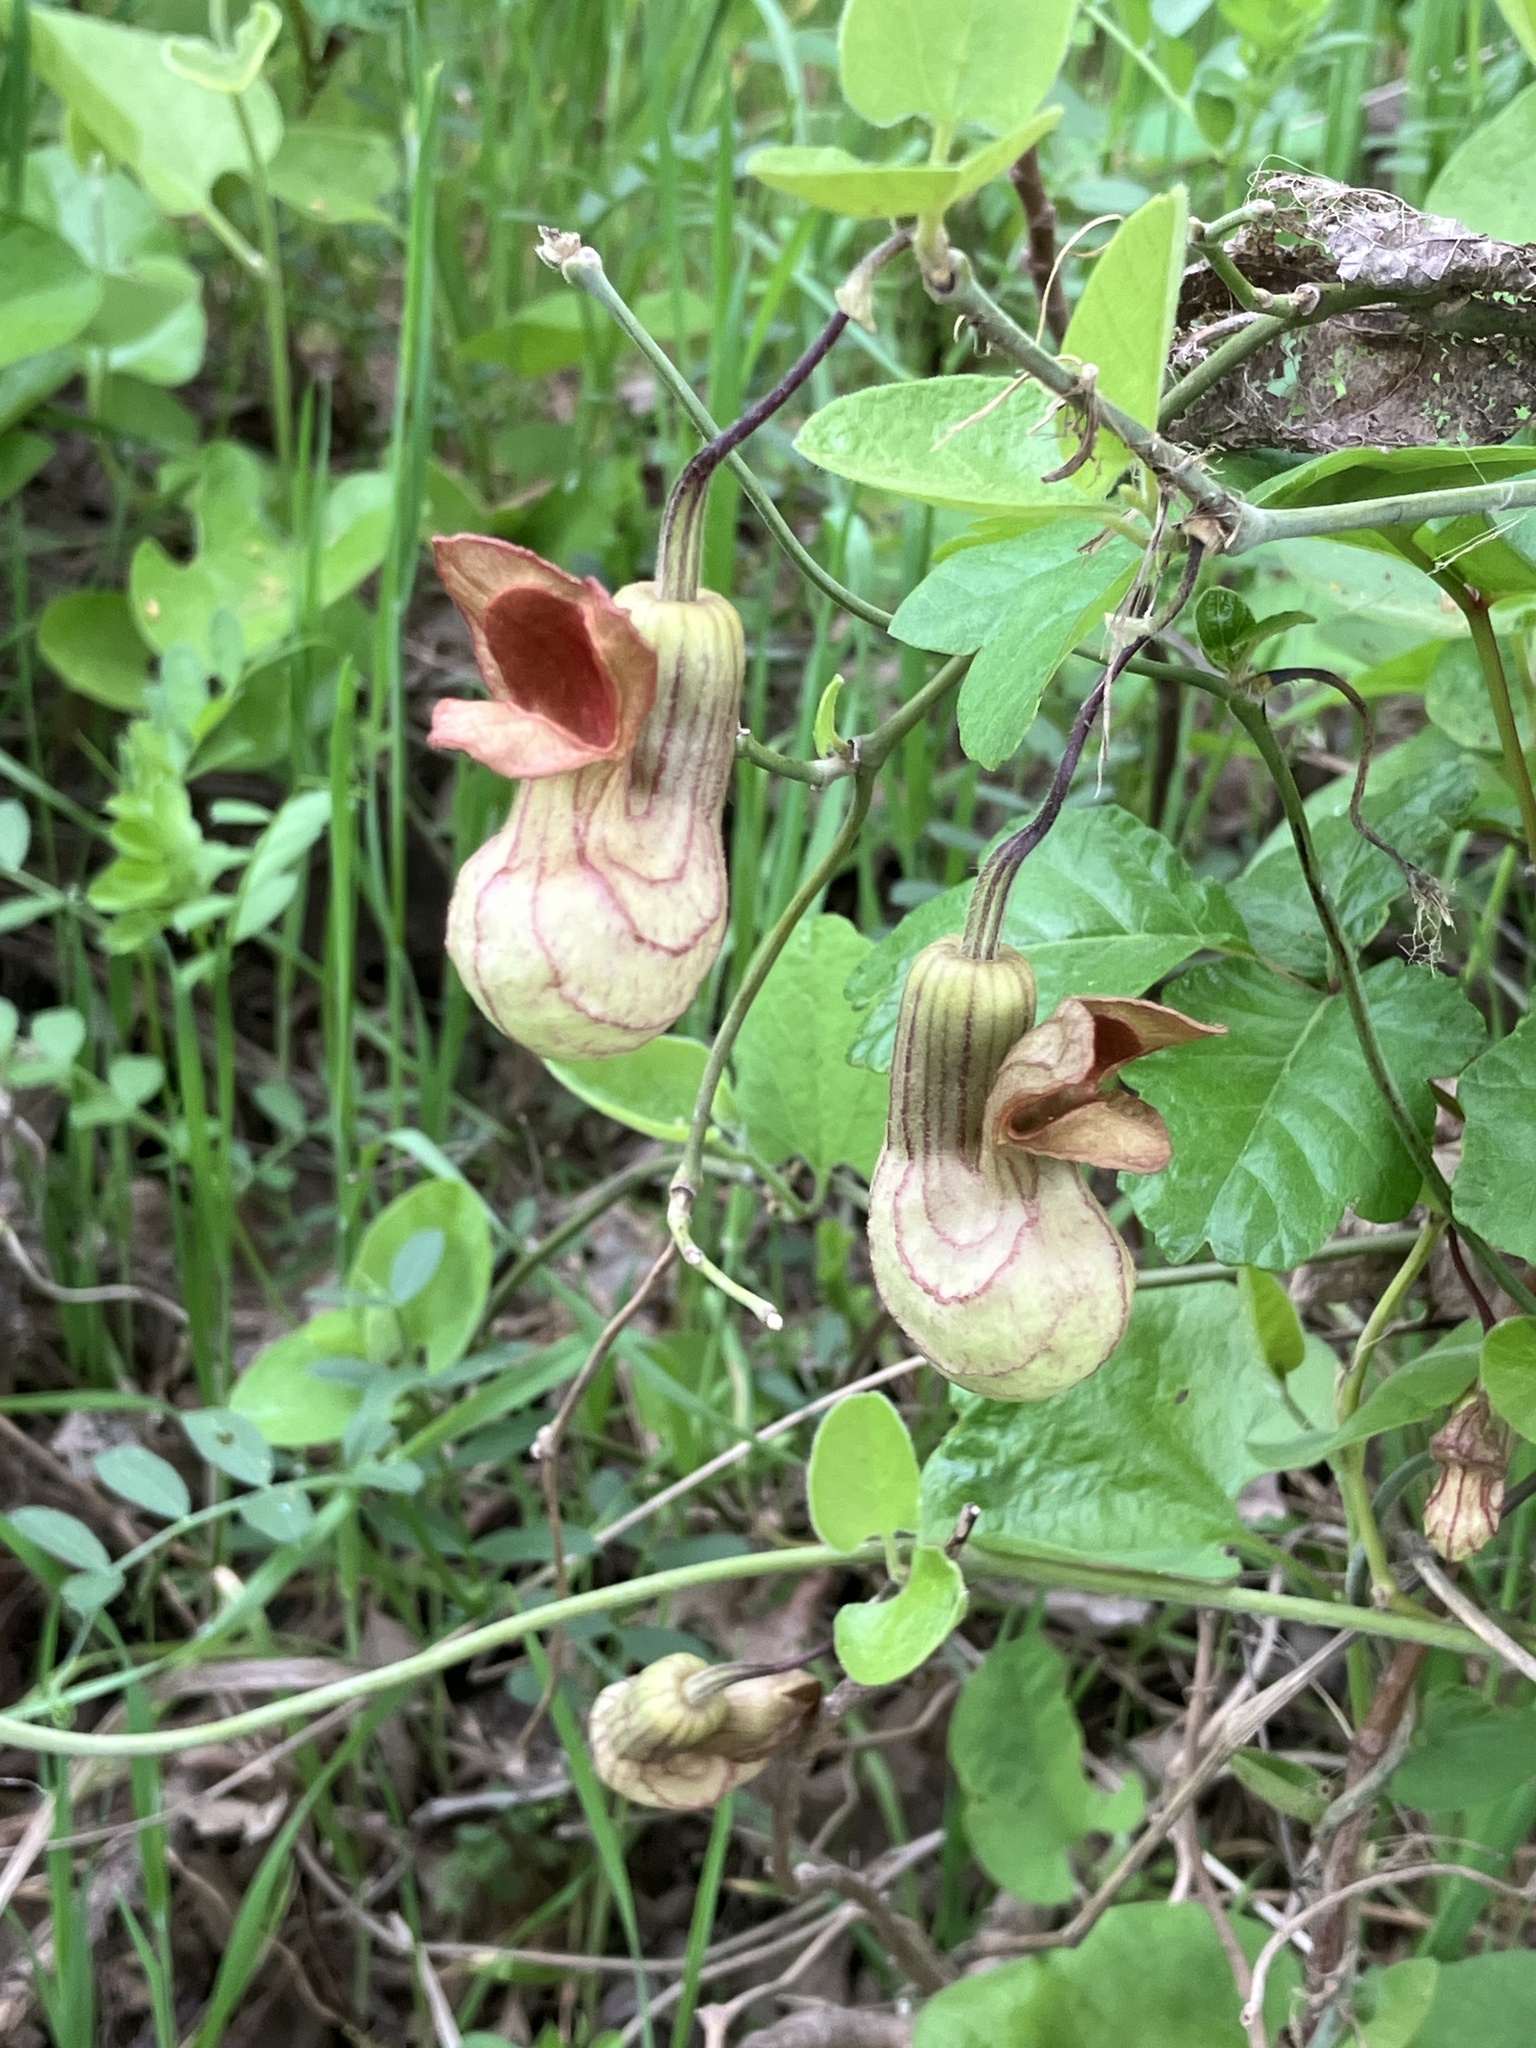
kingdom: Plantae
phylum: Tracheophyta
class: Magnoliopsida
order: Piperales
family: Aristolochiaceae
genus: Isotrema
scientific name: Isotrema californicum
